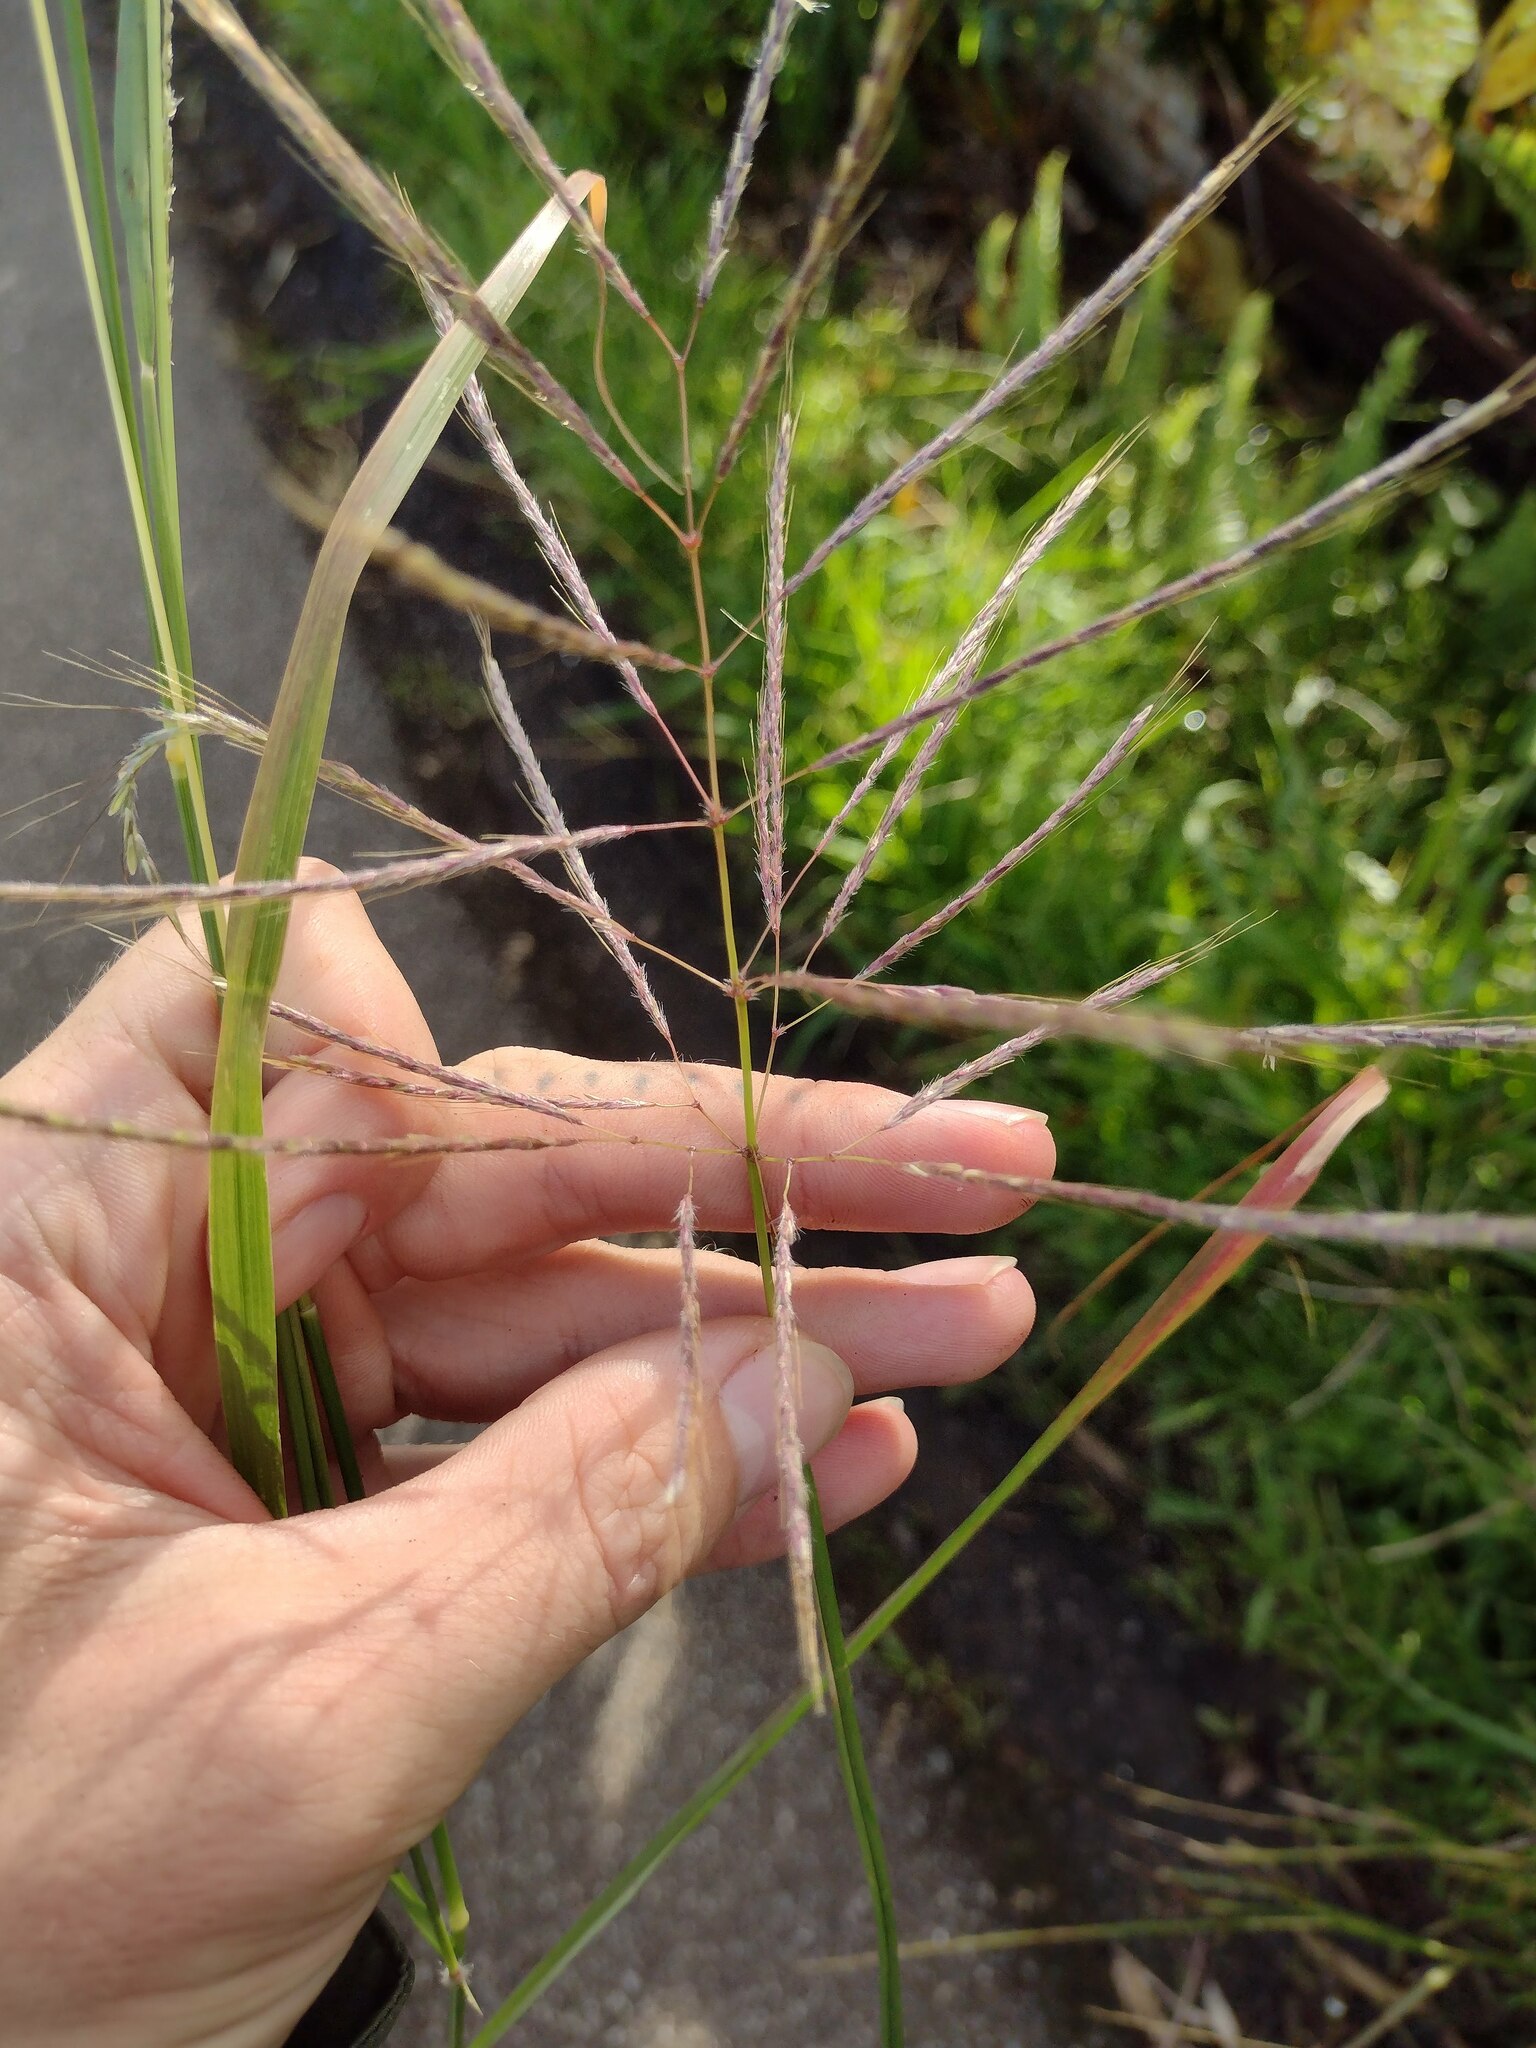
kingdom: Plantae
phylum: Tracheophyta
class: Liliopsida
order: Poales
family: Poaceae
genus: Dichanthium
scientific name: Dichanthium annulatum
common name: Kleberg's bluestem
